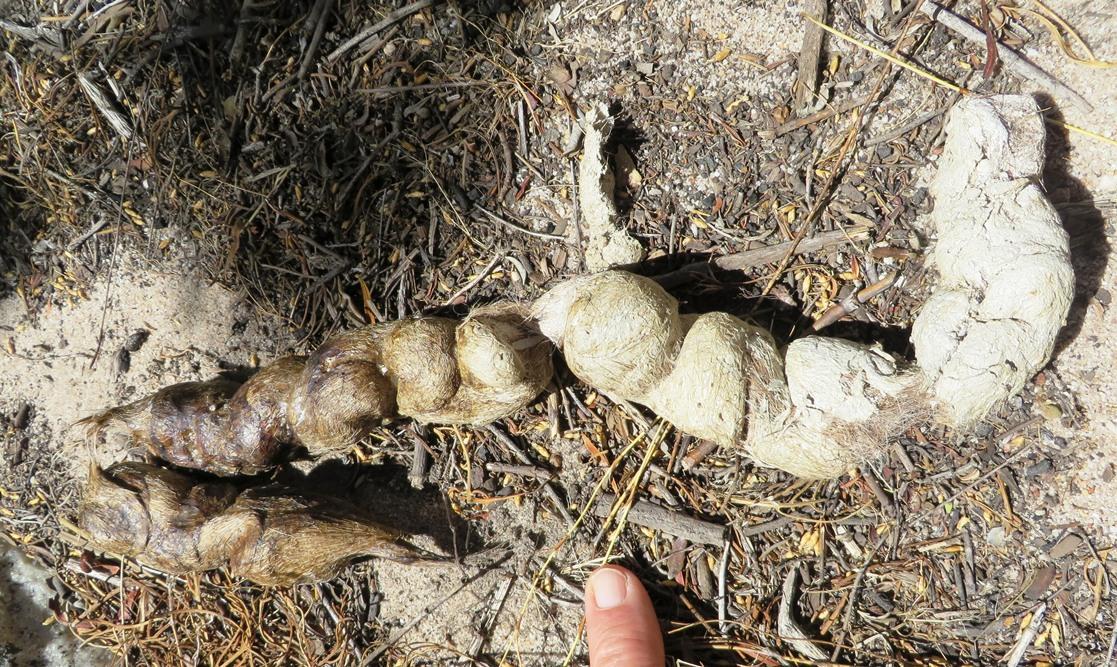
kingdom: Animalia
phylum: Chordata
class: Mammalia
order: Carnivora
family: Felidae
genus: Panthera
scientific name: Panthera pardus
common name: Leopard
